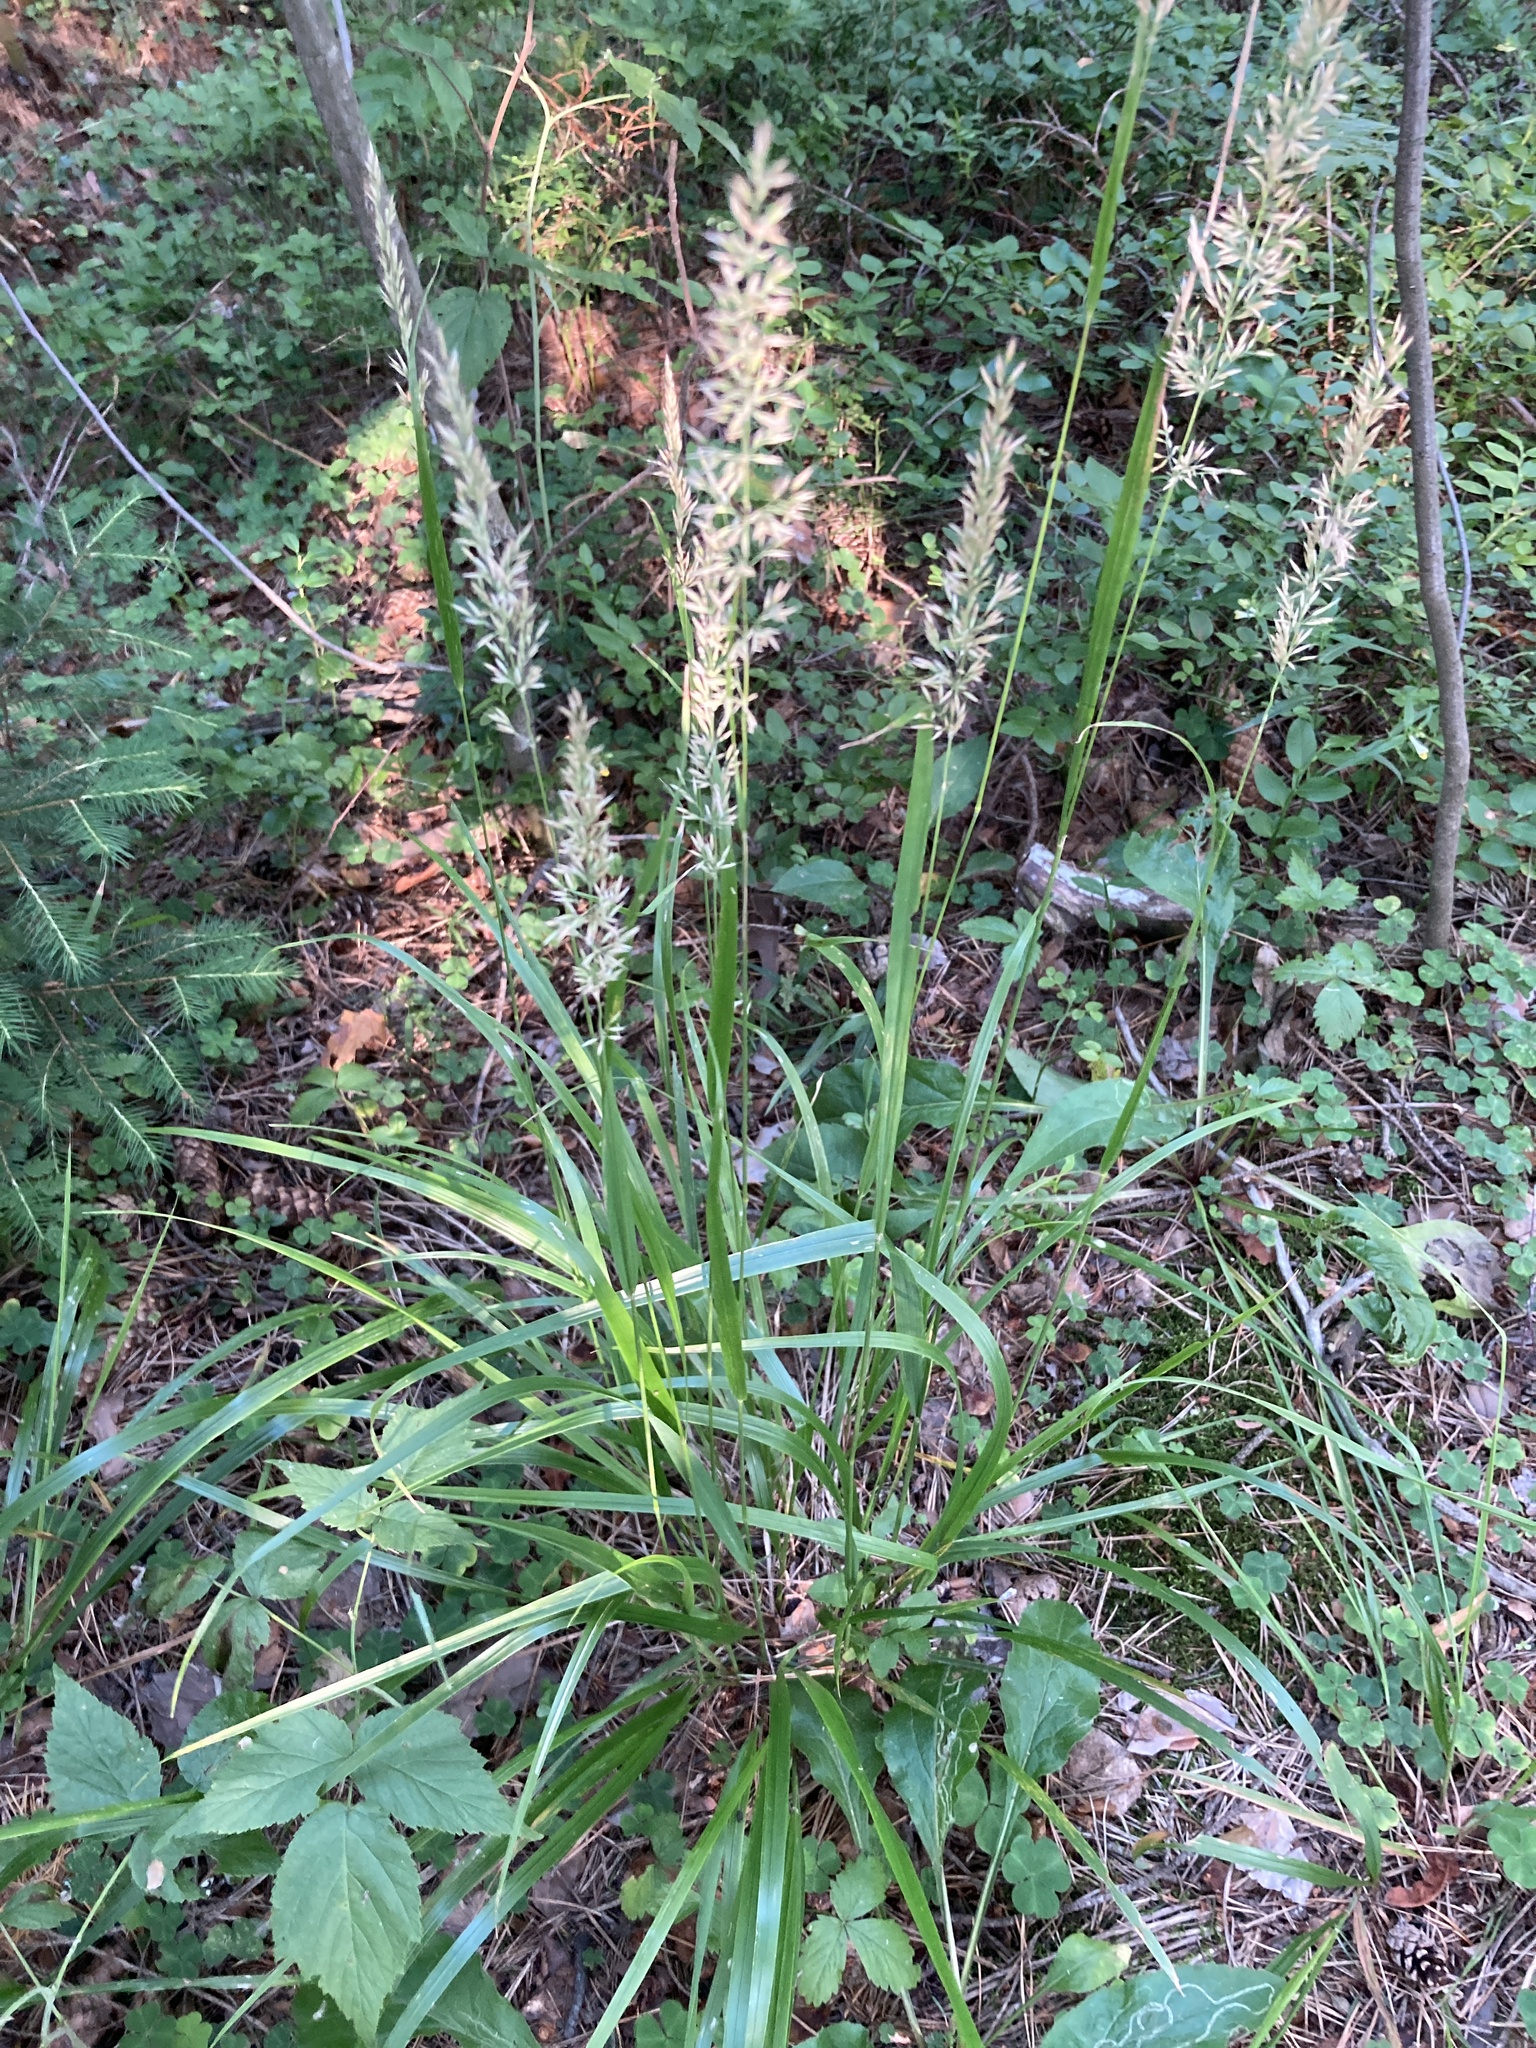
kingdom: Plantae
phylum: Tracheophyta
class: Liliopsida
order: Poales
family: Poaceae
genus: Calamagrostis
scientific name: Calamagrostis arundinacea
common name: Metskastik
